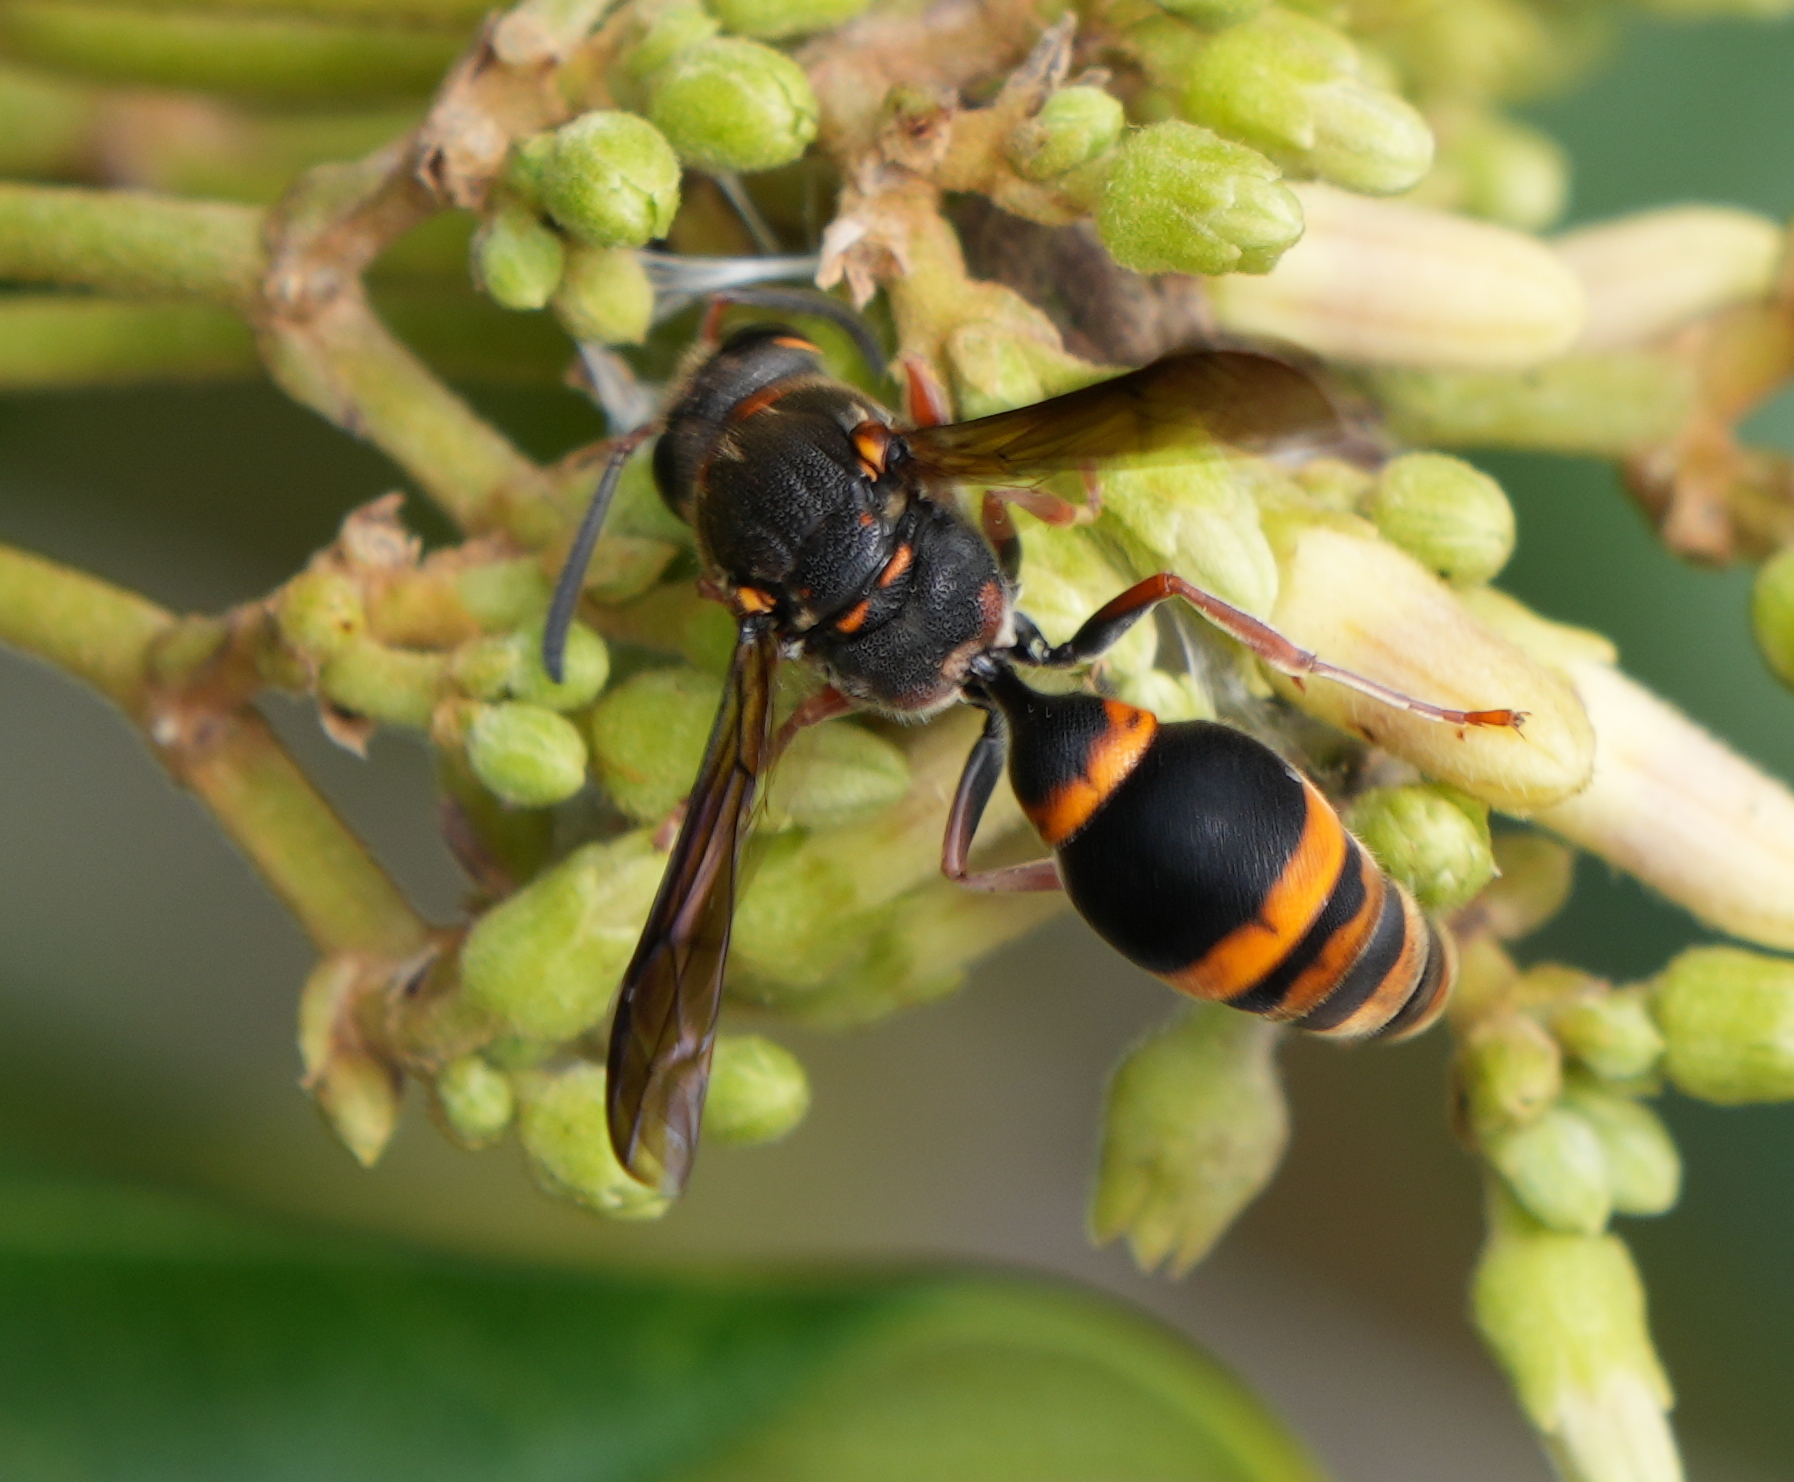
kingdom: Animalia
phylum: Arthropoda
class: Insecta
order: Hymenoptera
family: Eumenidae
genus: Acarozumia
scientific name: Acarozumia amaliae
